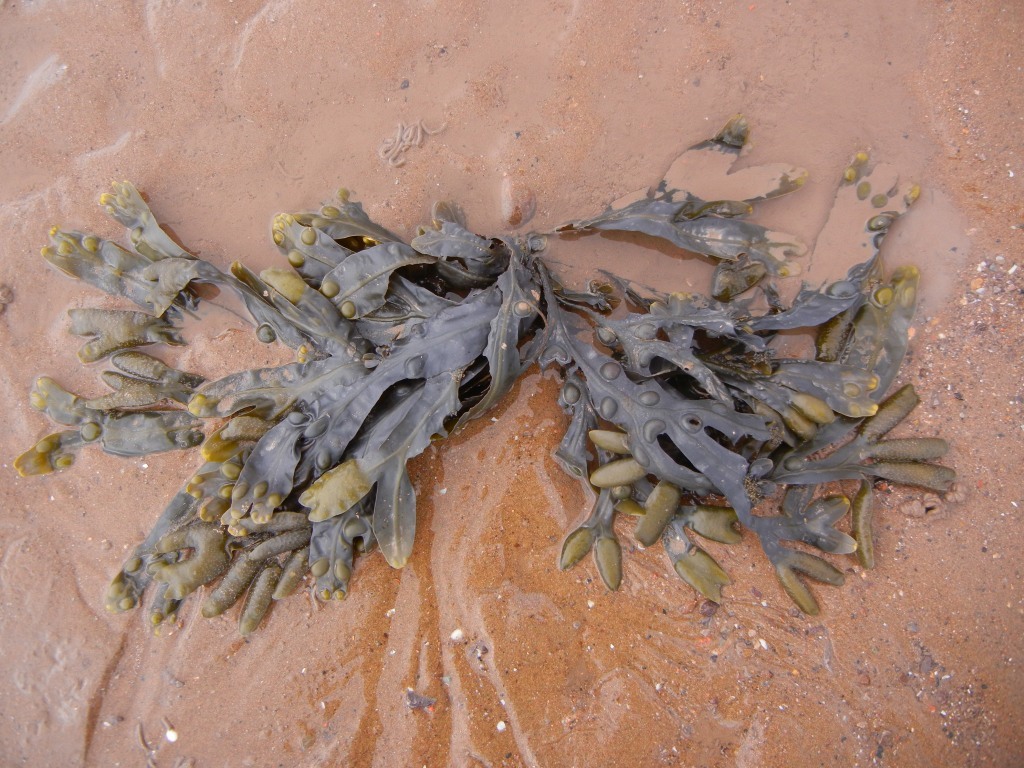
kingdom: Chromista
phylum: Ochrophyta
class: Phaeophyceae
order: Fucales
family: Fucaceae
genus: Fucus
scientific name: Fucus vesiculosus
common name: Bladder wrack
